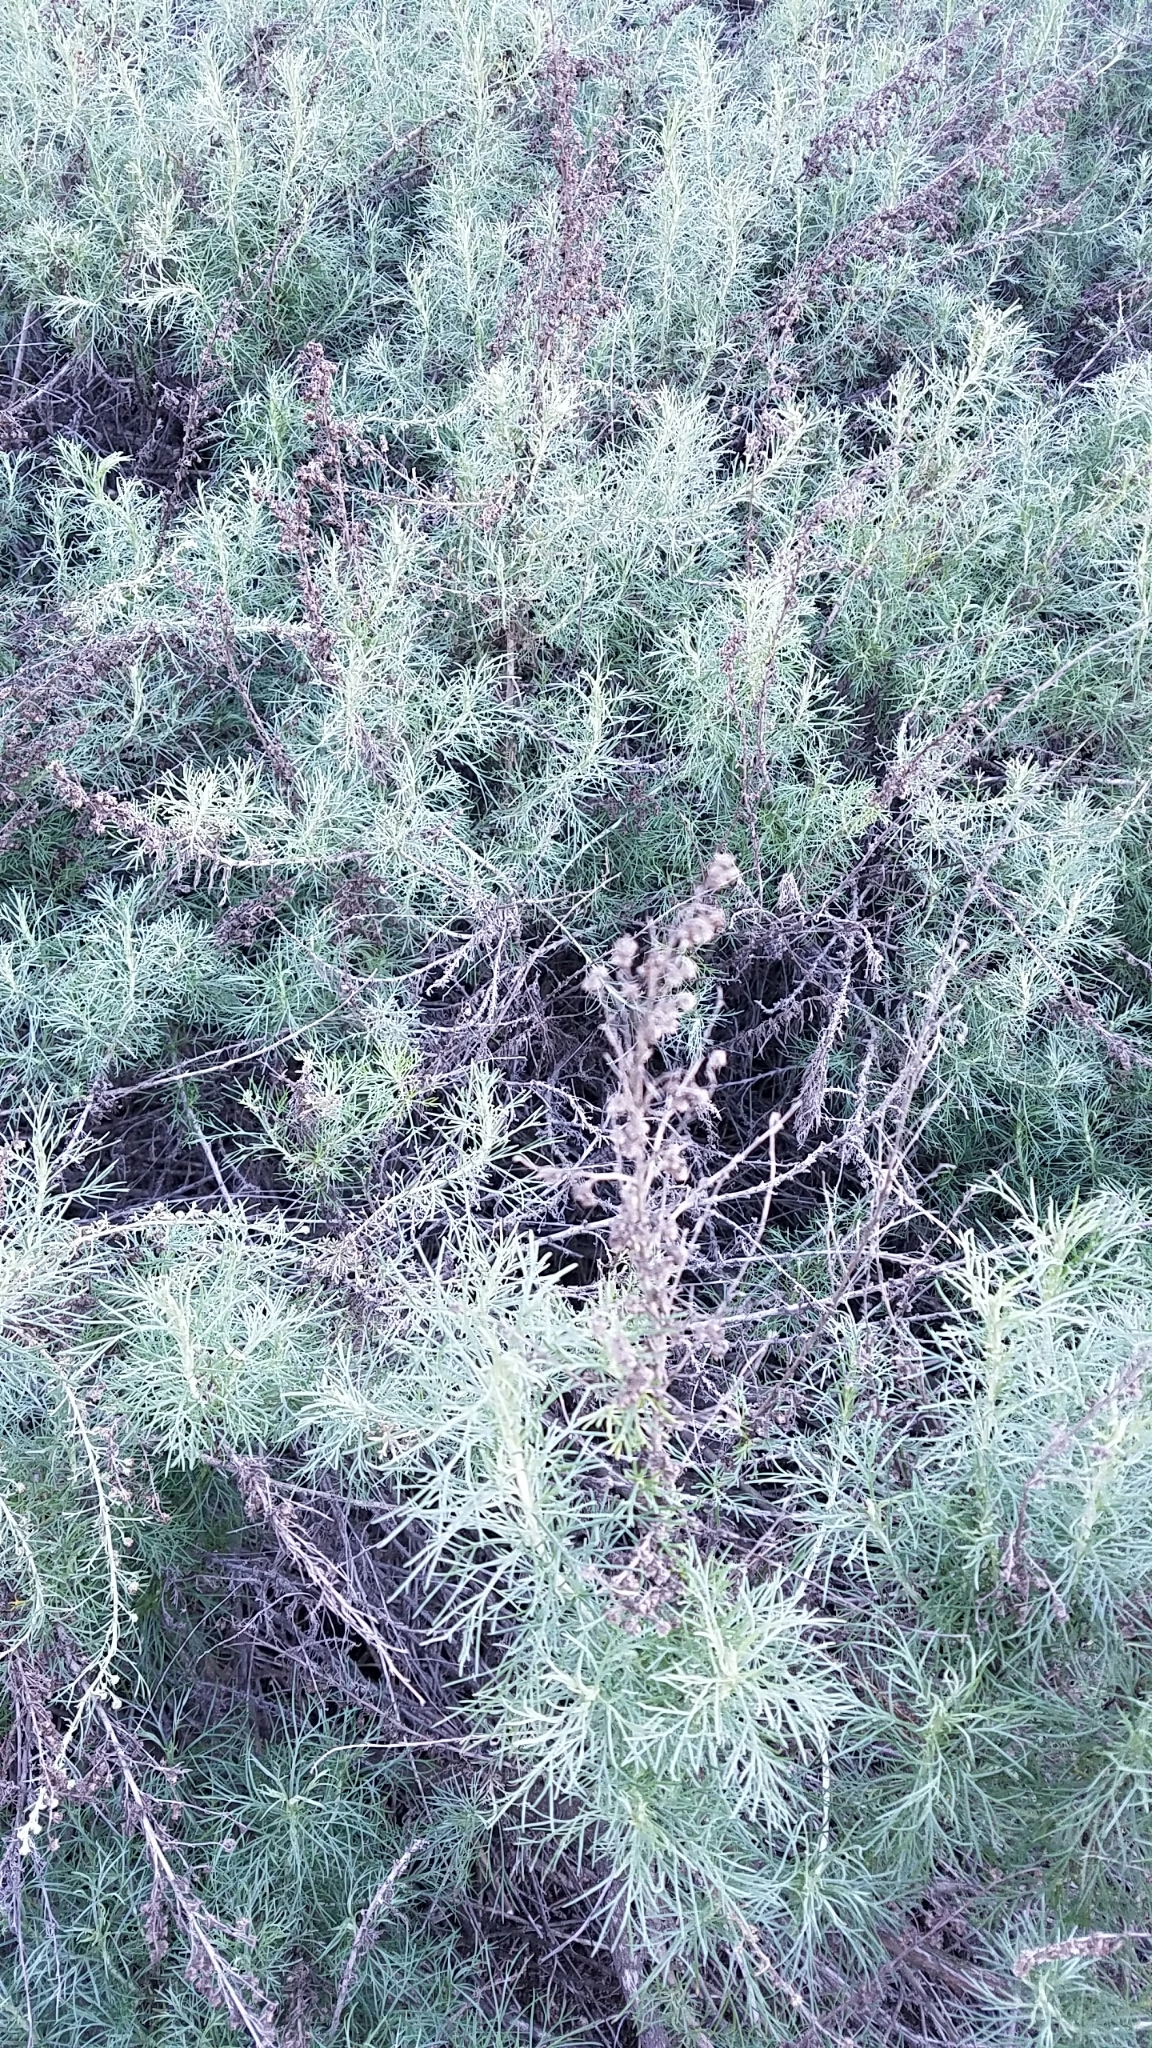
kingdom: Plantae
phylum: Tracheophyta
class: Magnoliopsida
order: Asterales
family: Asteraceae
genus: Artemisia
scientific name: Artemisia californica
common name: California sagebrush
